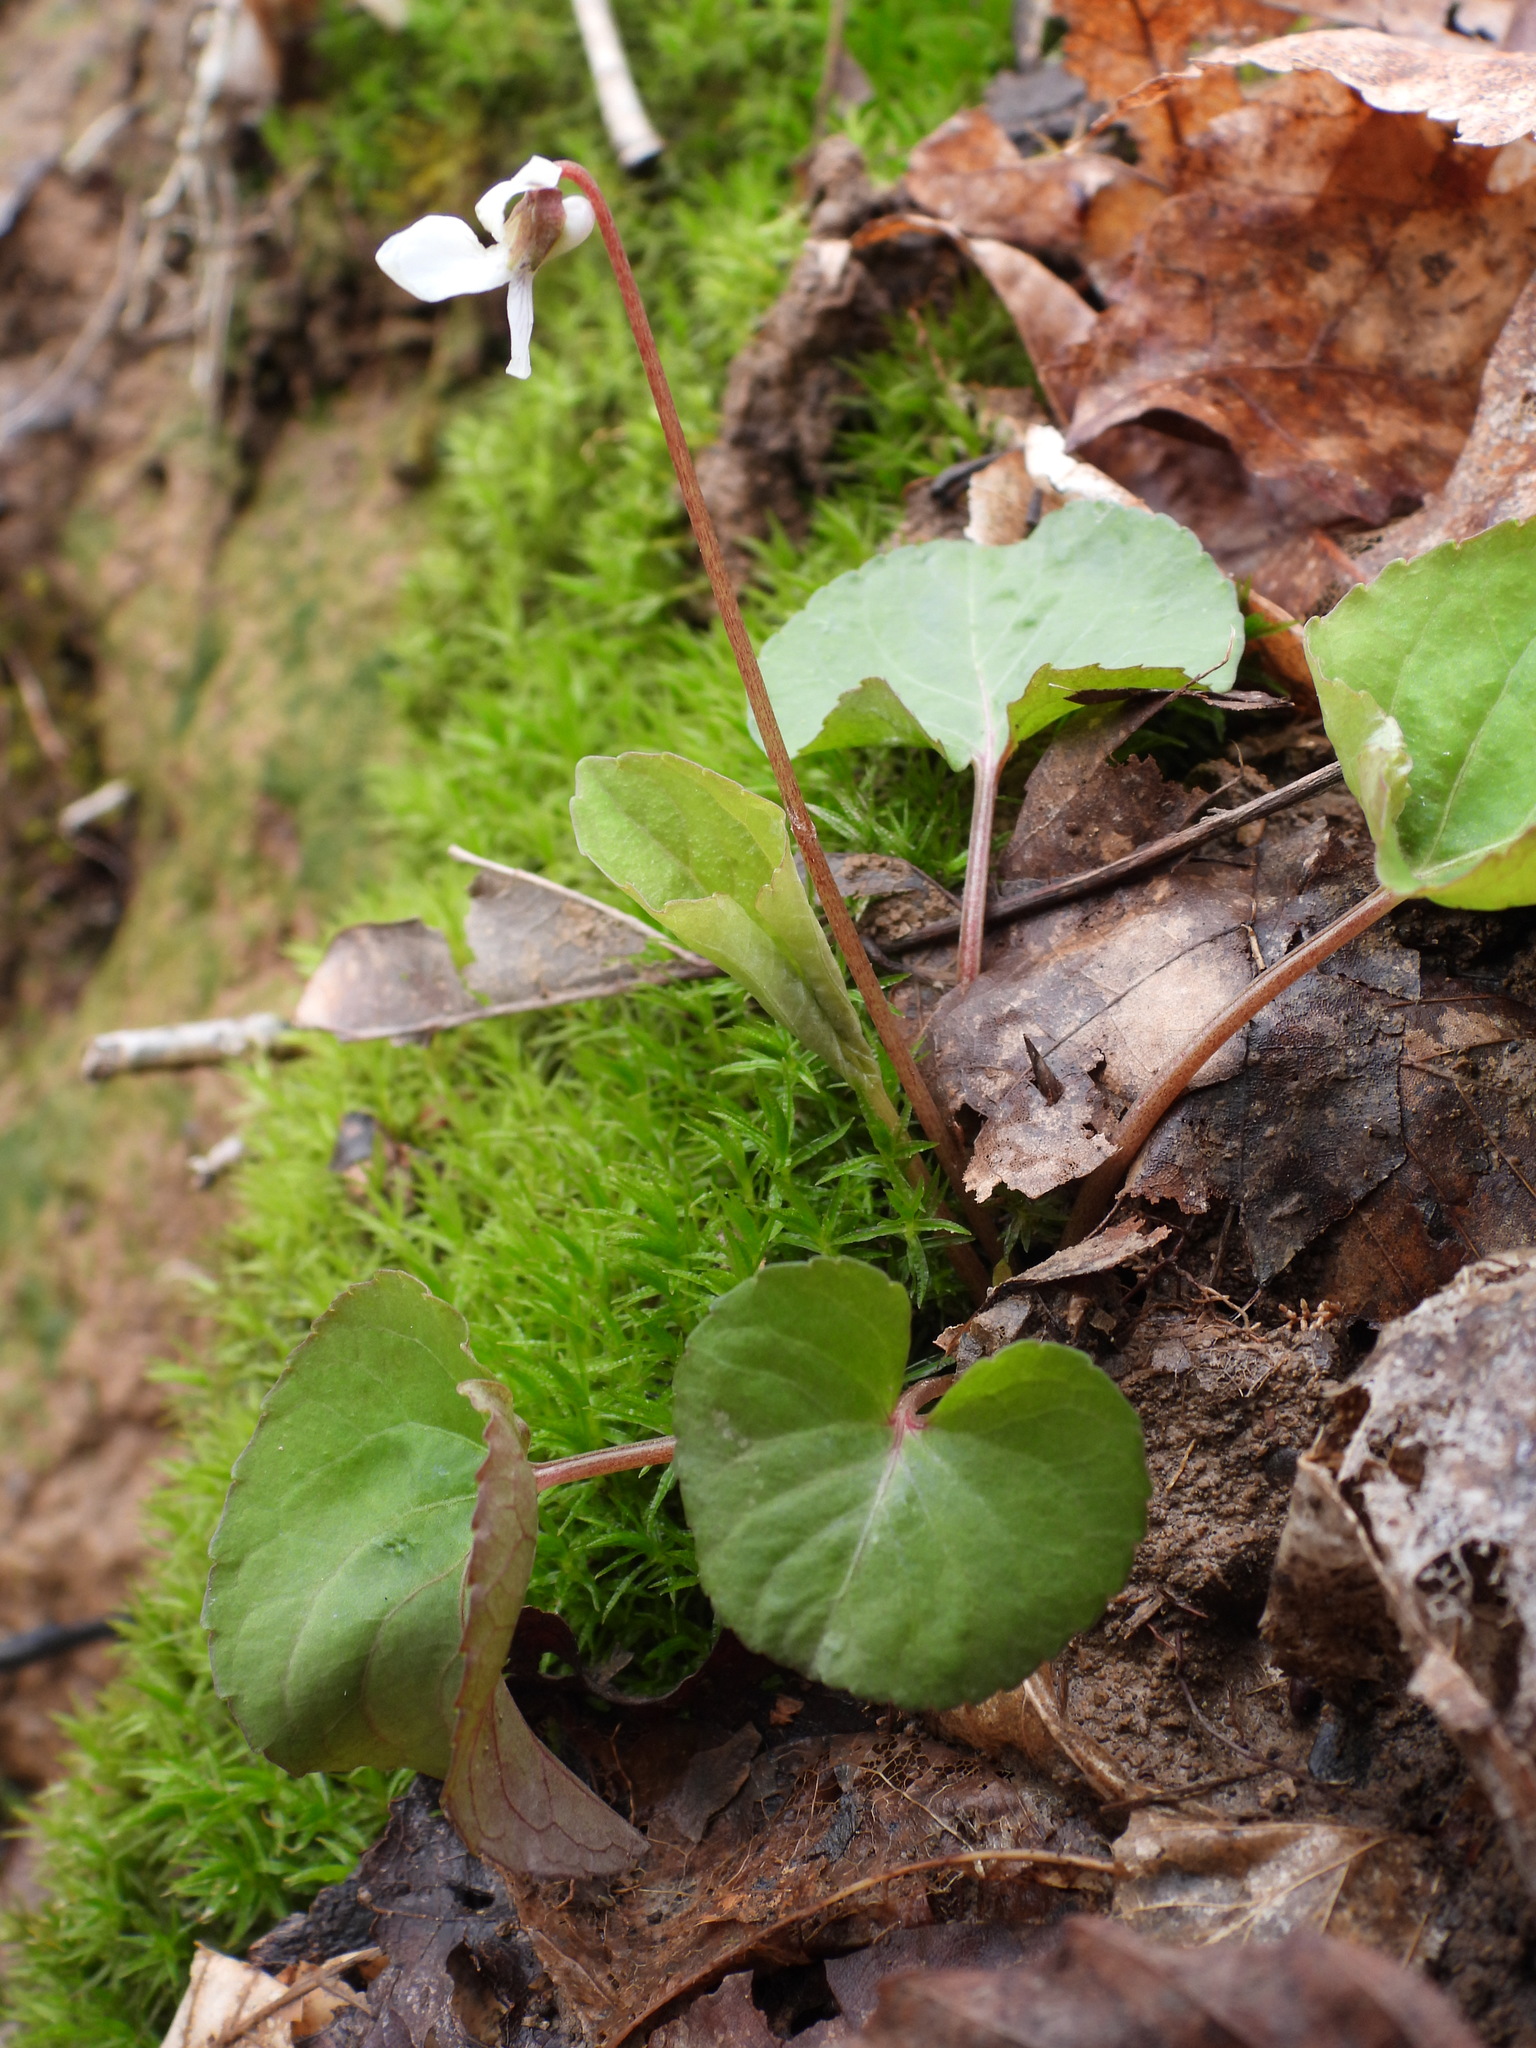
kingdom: Plantae
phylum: Tracheophyta
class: Magnoliopsida
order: Malpighiales
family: Violaceae
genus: Viola
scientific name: Viola blanda
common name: Sweet white violet
